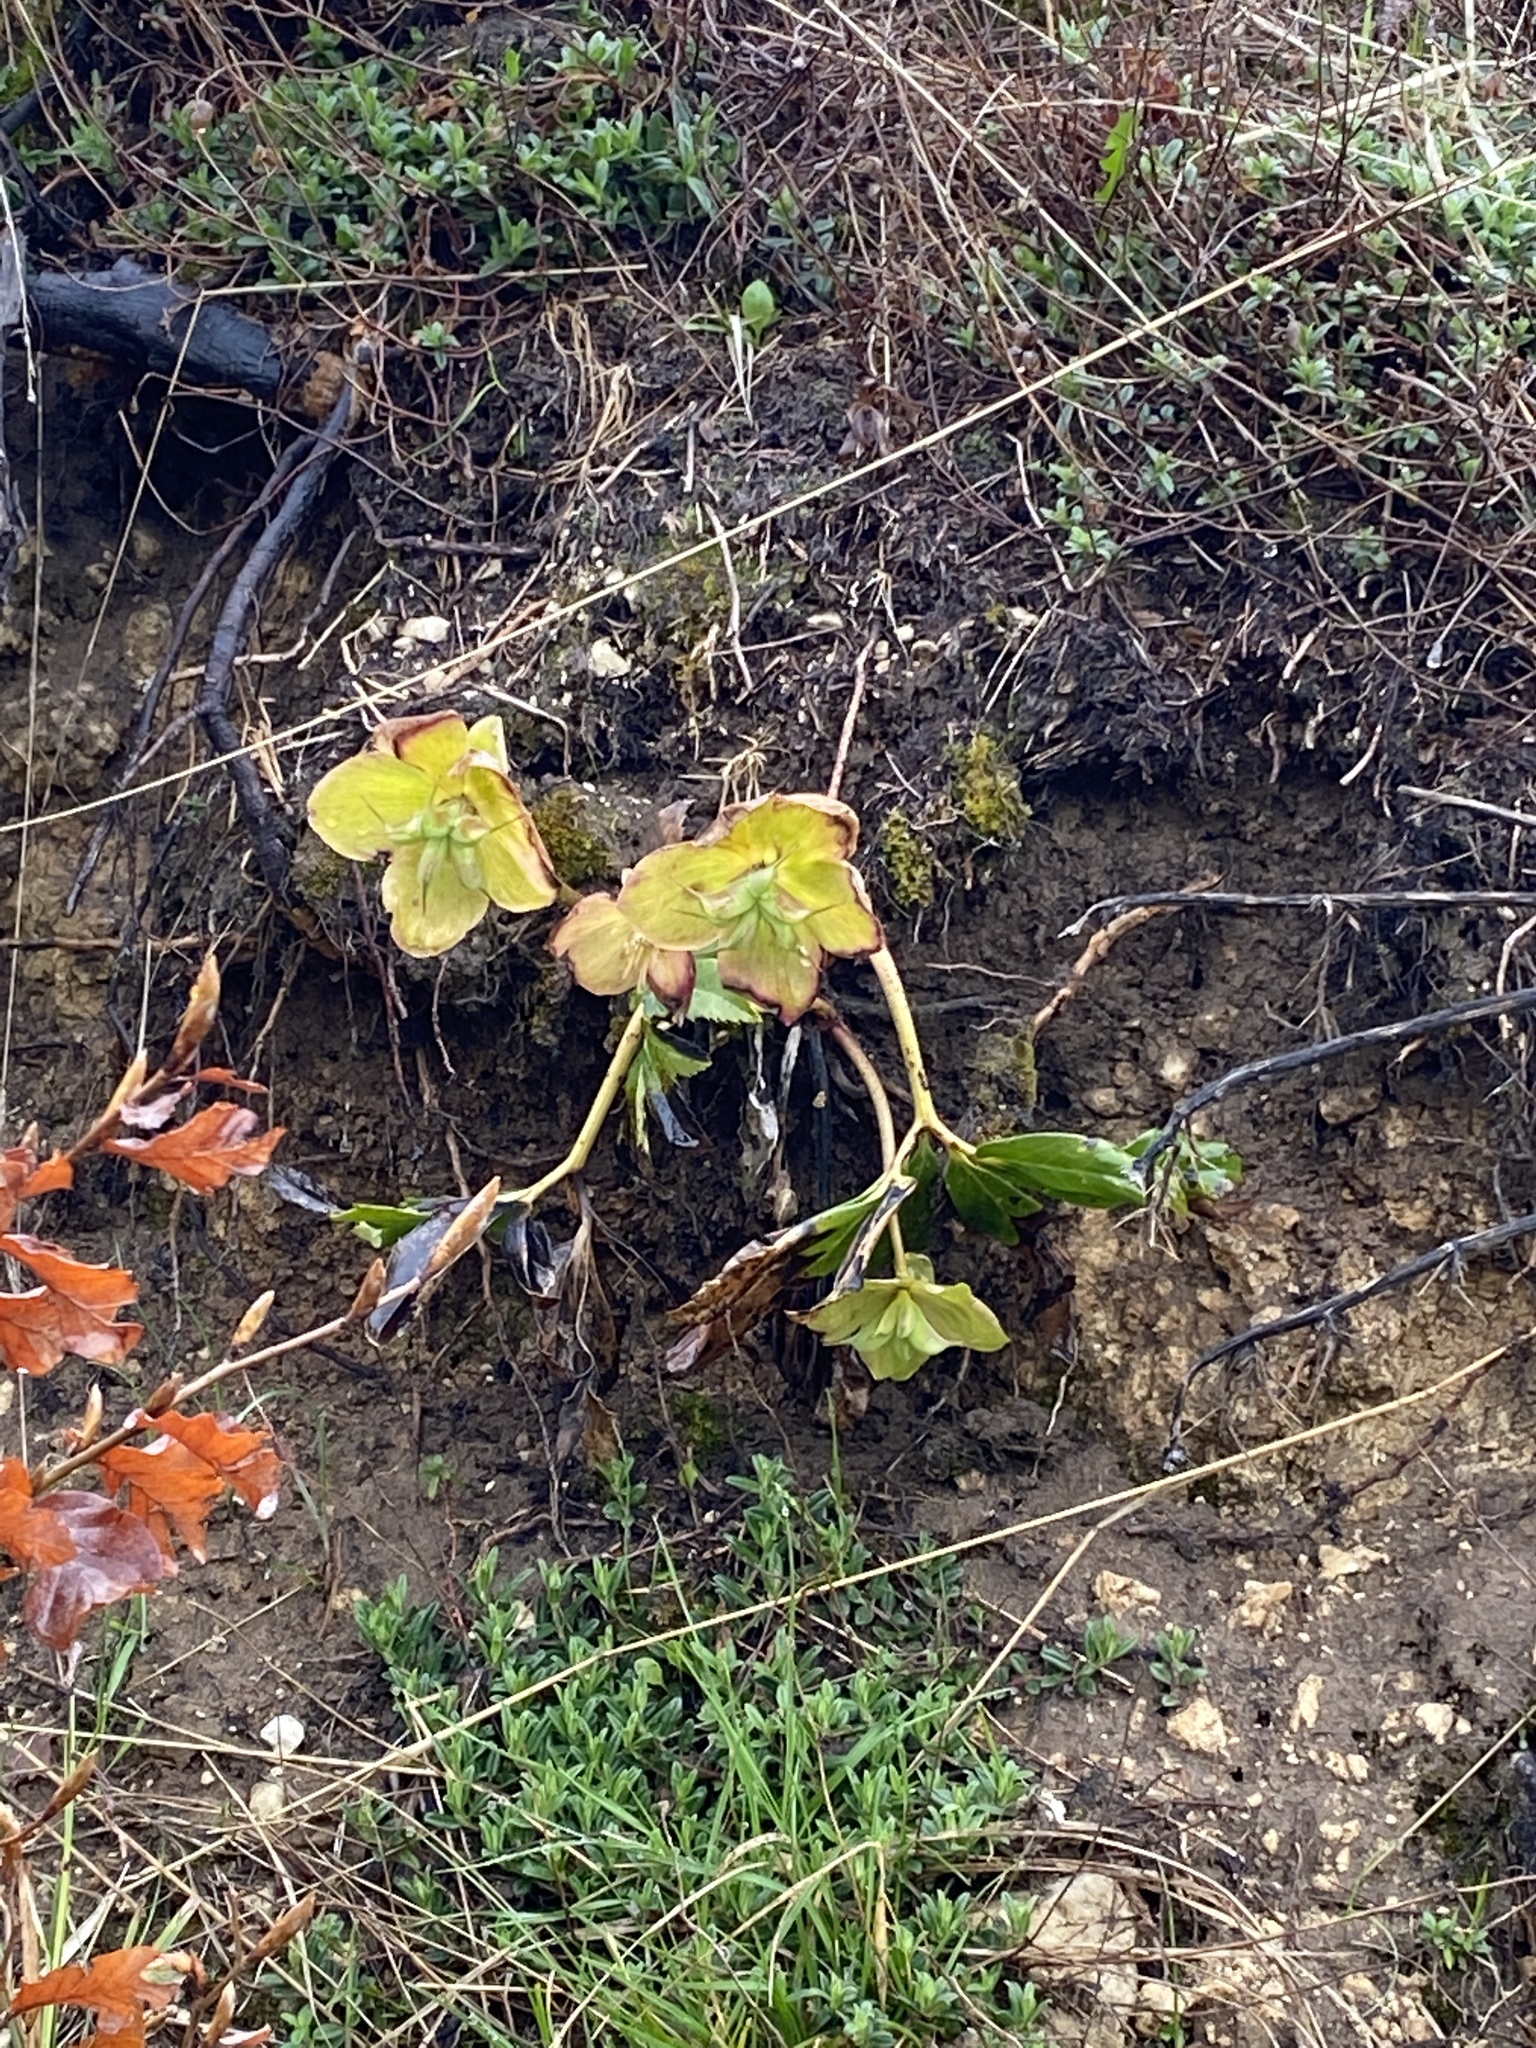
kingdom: Plantae
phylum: Tracheophyta
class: Magnoliopsida
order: Ranunculales
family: Ranunculaceae
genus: Helleborus
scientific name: Helleborus niger
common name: Black hellebore
